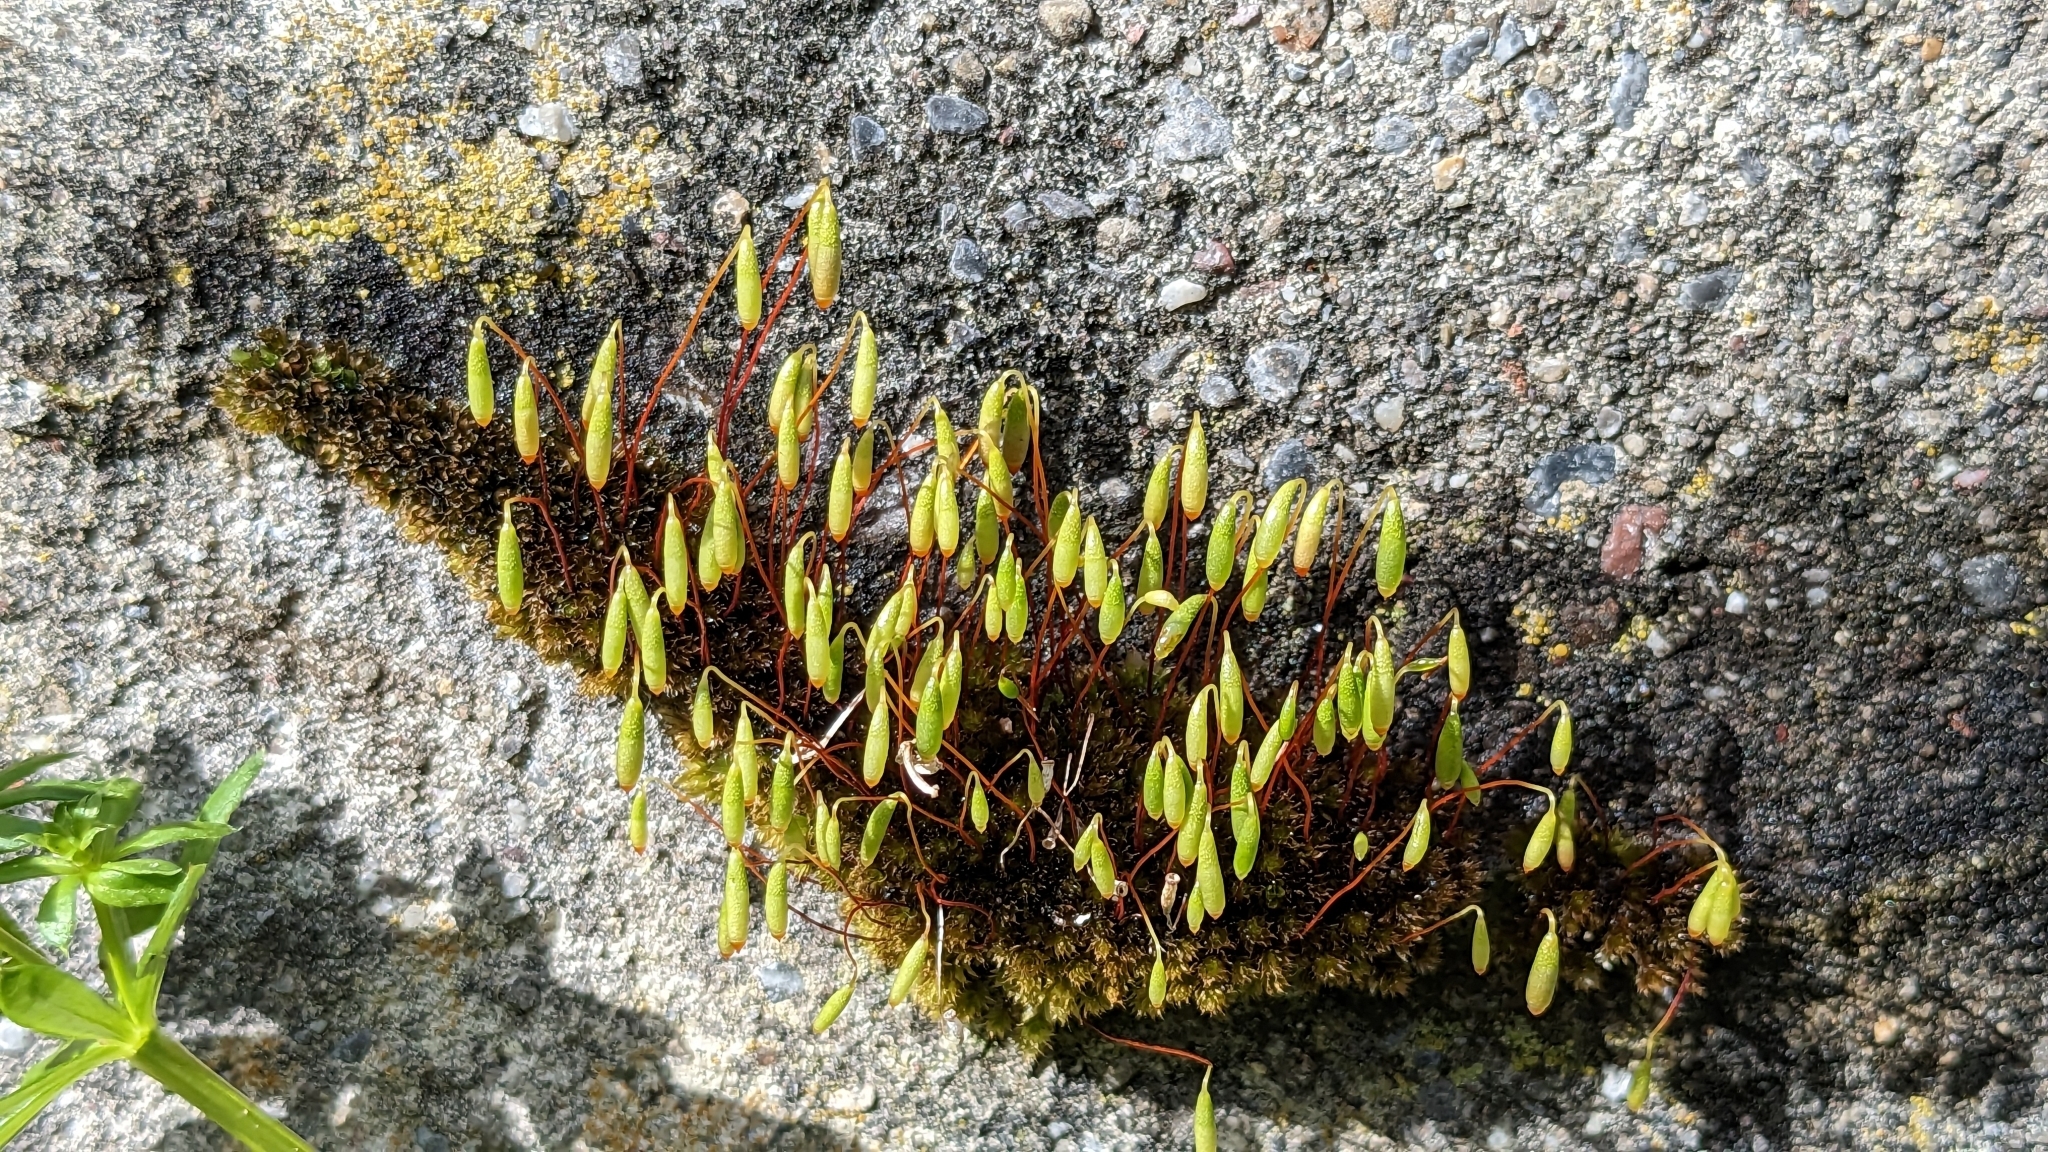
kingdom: Plantae
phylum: Bryophyta
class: Bryopsida
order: Bryales
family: Bryaceae
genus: Rosulabryum
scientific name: Rosulabryum capillare
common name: Capillary thread-moss
